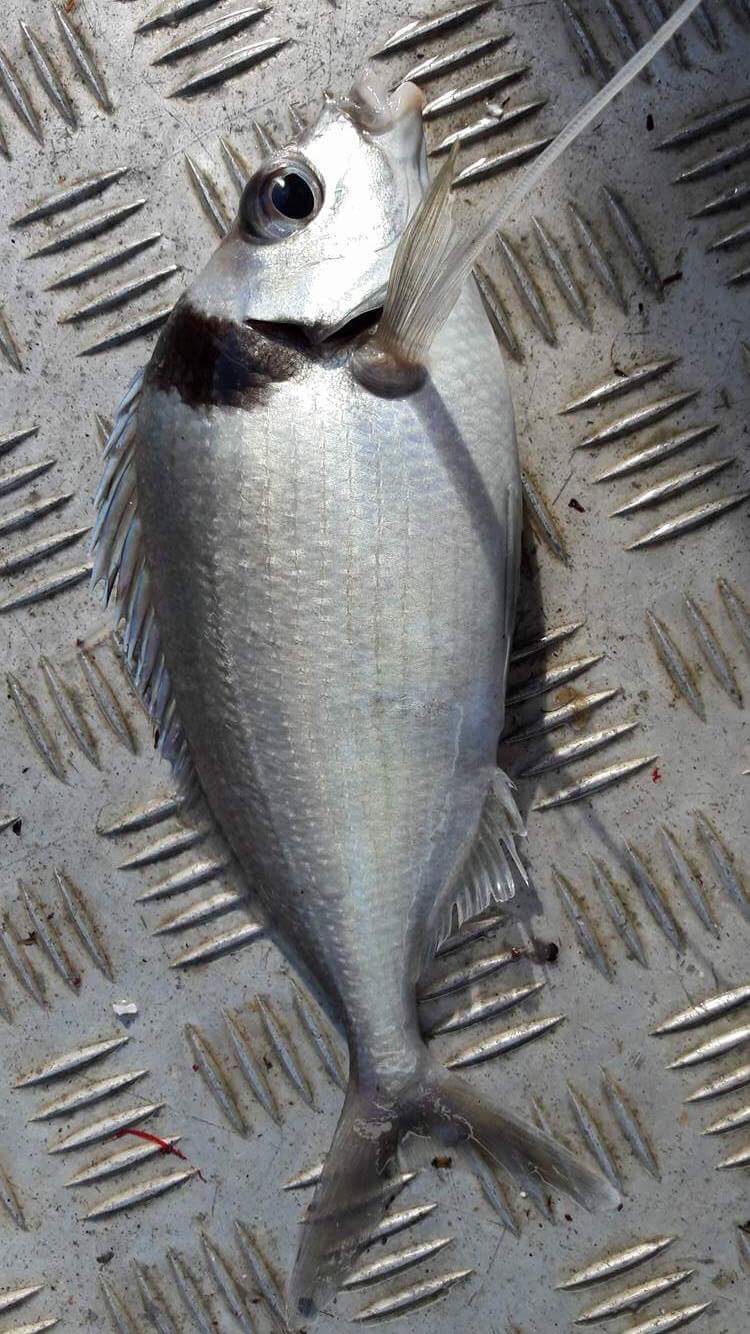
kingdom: Animalia
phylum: Chordata
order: Perciformes
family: Cheilodactylidae
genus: Nemadactylus
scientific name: Nemadactylus macropterus
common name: Tarakihi
